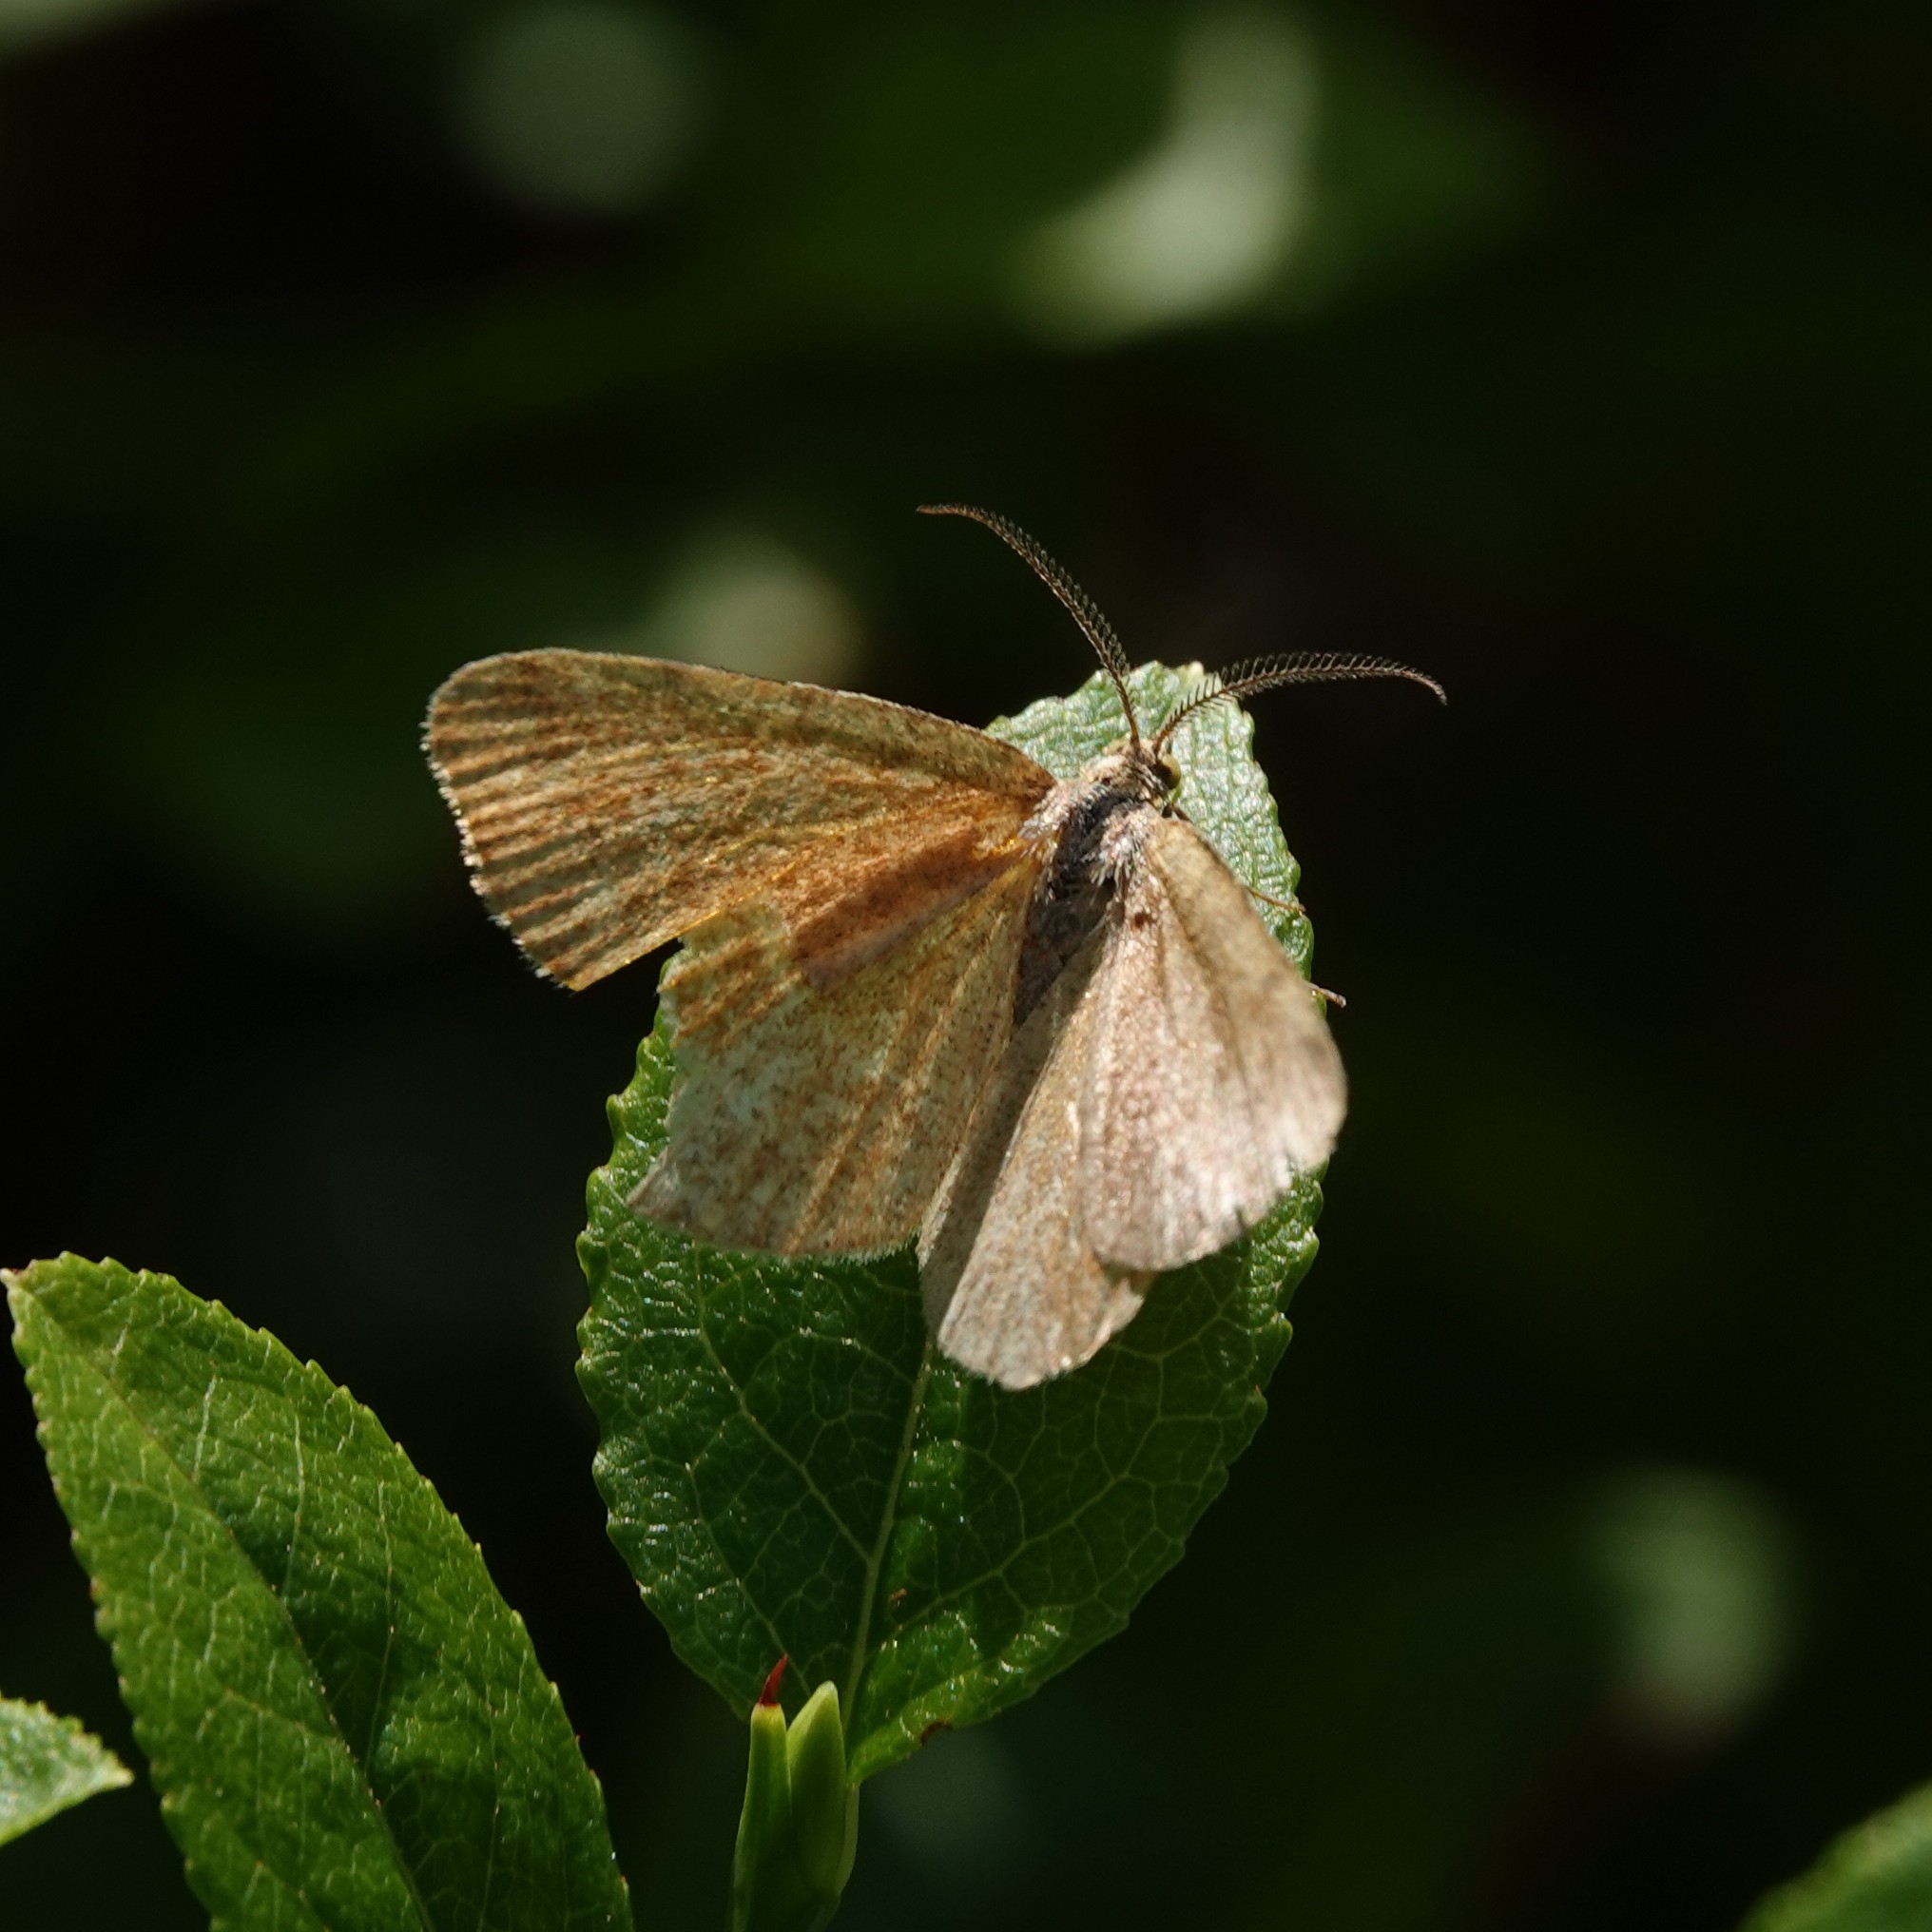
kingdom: Animalia
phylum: Arthropoda
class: Insecta
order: Lepidoptera
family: Geometridae
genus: Macaria
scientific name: Macaria brunneata
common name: Rannoch looper
